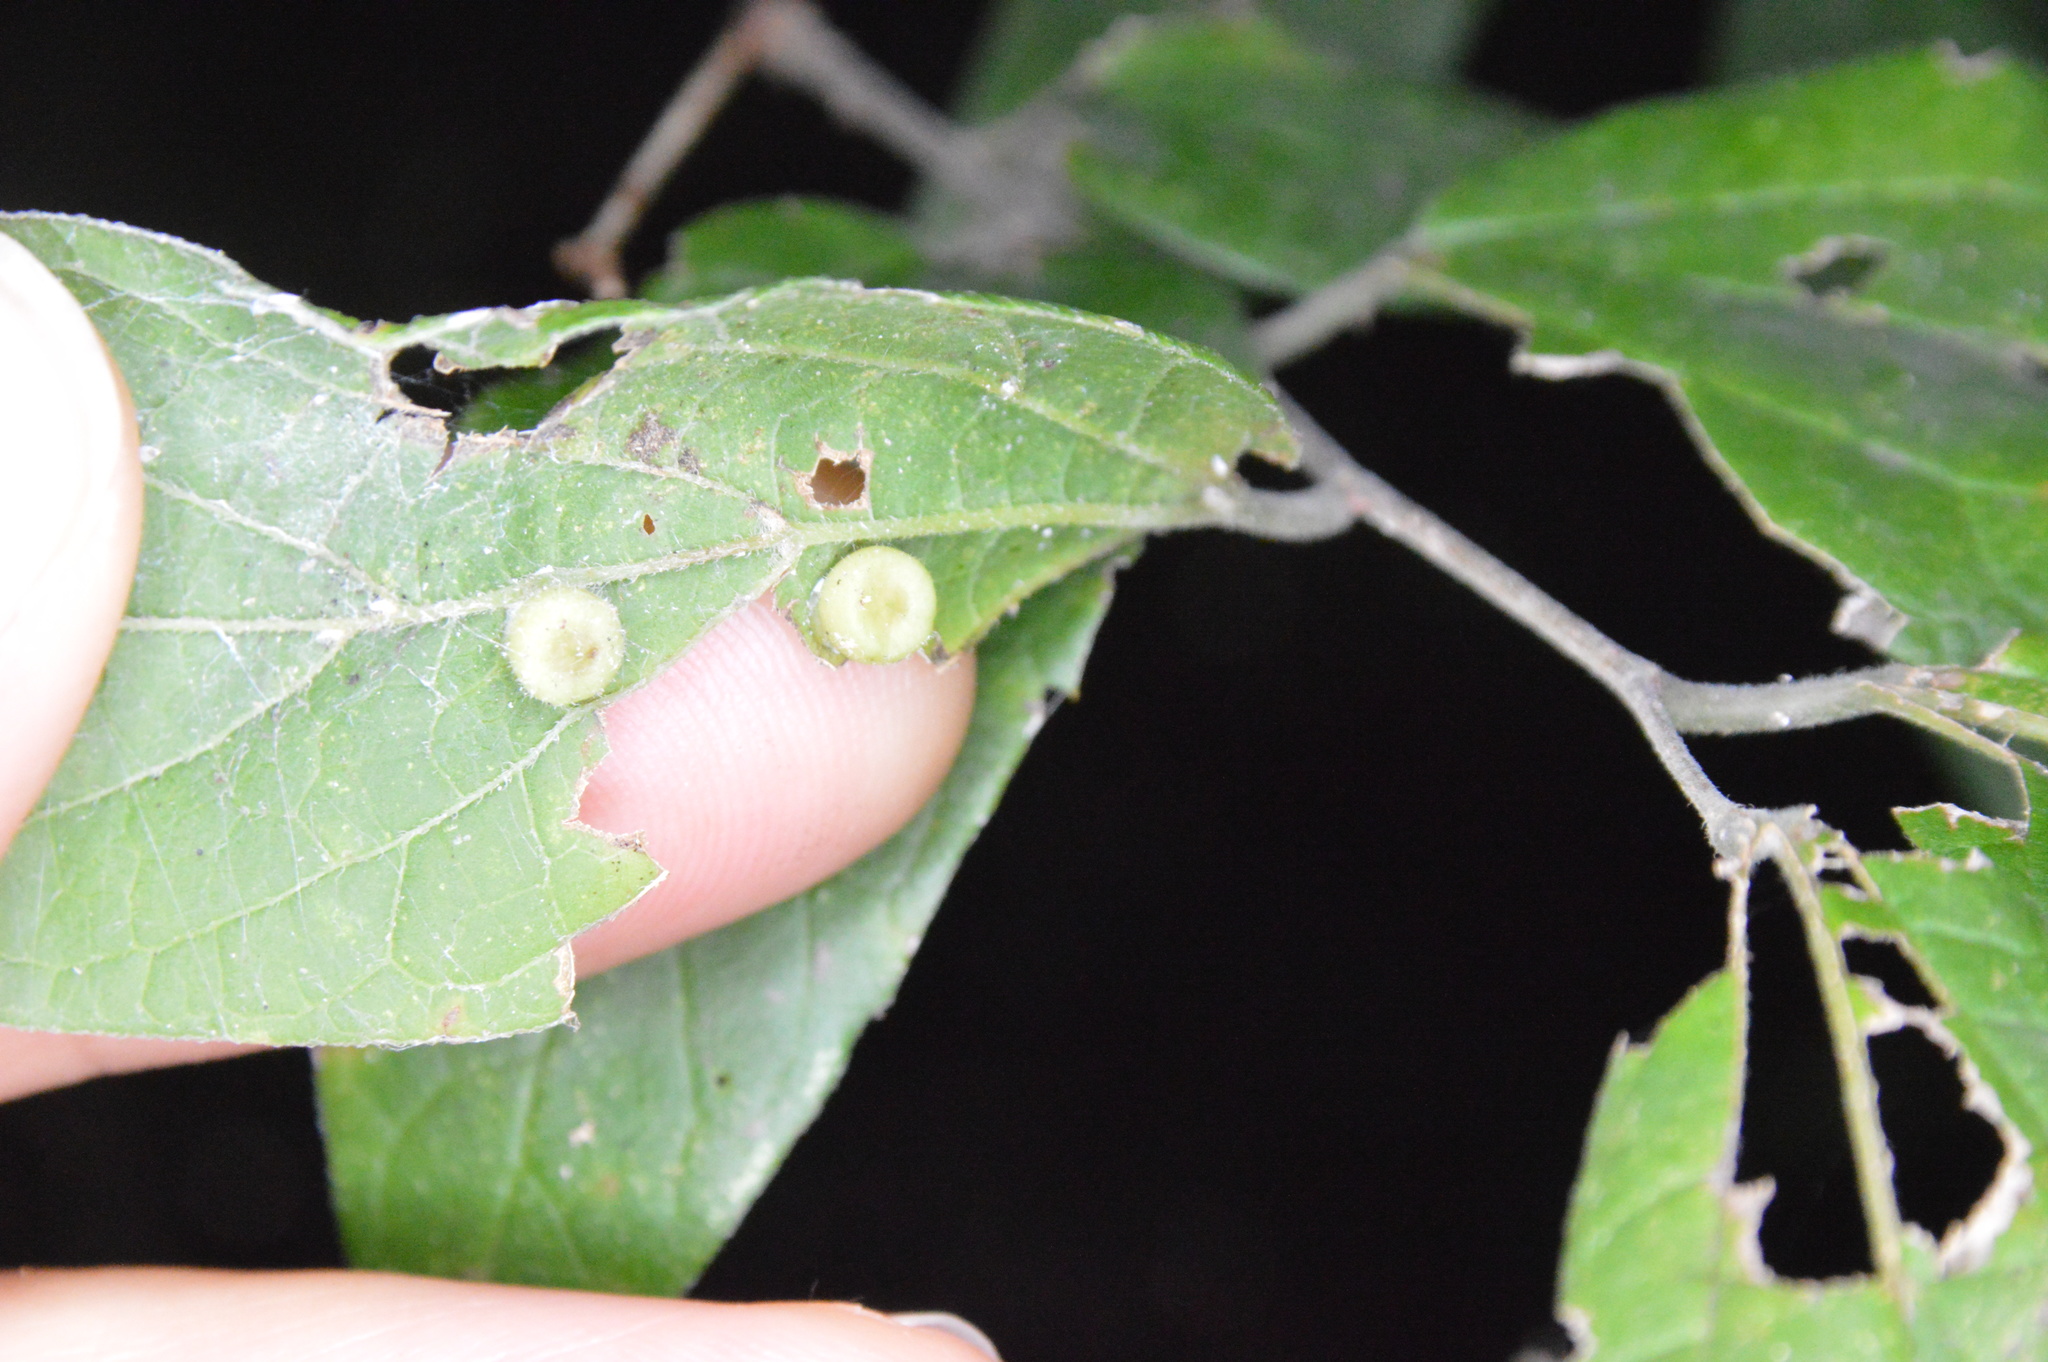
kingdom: Animalia
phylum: Arthropoda
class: Insecta
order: Hemiptera
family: Aphalaridae
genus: Pachypsylla
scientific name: Pachypsylla celtidismamma
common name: Hackberry nipplegall psyllid
